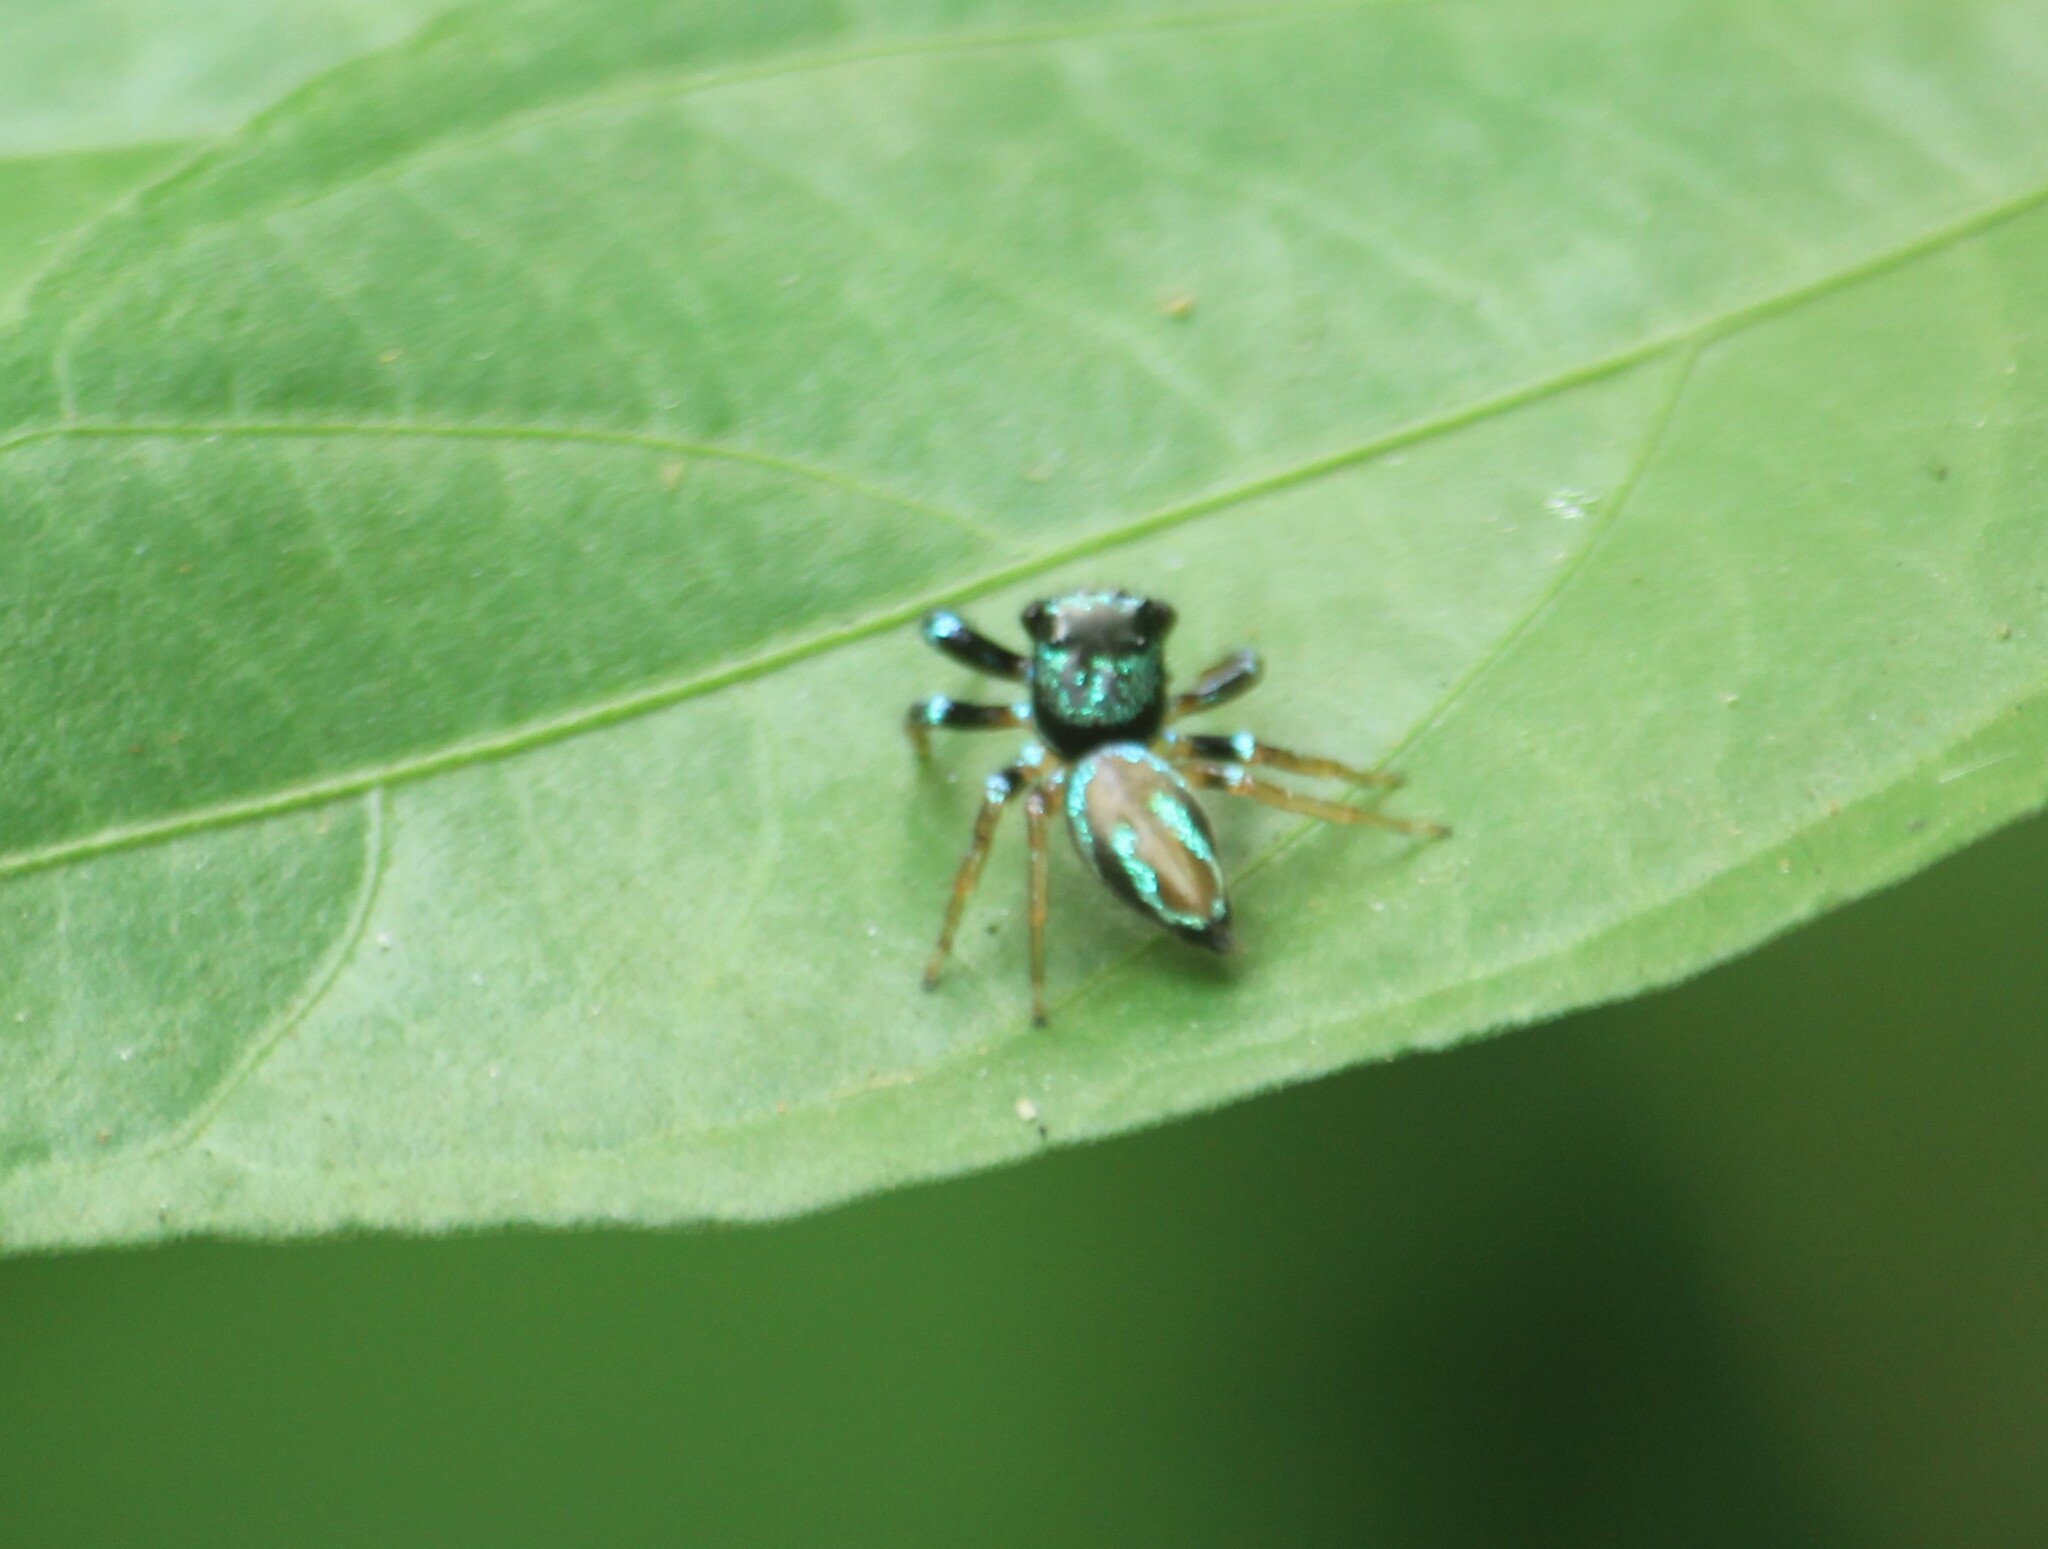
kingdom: Animalia
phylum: Arthropoda
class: Arachnida
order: Araneae
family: Salticidae
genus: Thiania
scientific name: Thiania bhamoensis
